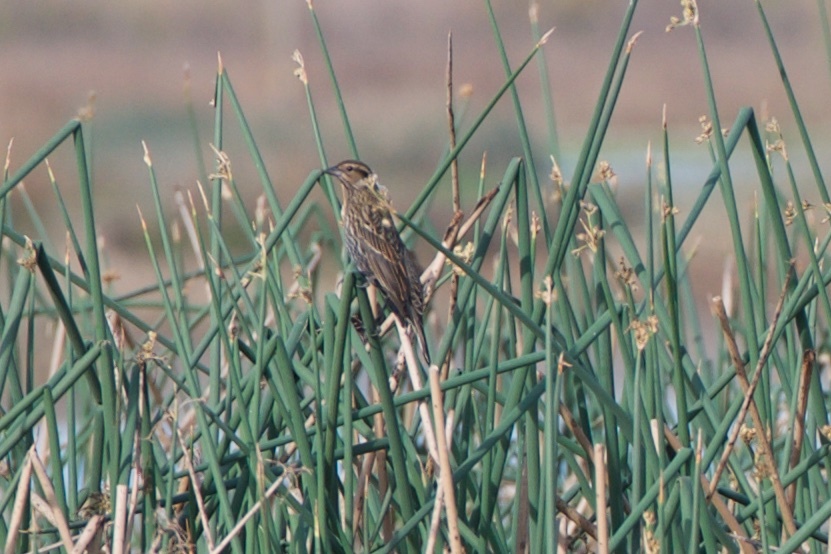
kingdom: Animalia
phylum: Chordata
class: Aves
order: Passeriformes
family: Icteridae
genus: Agelaius
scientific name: Agelaius phoeniceus
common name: Red-winged blackbird
